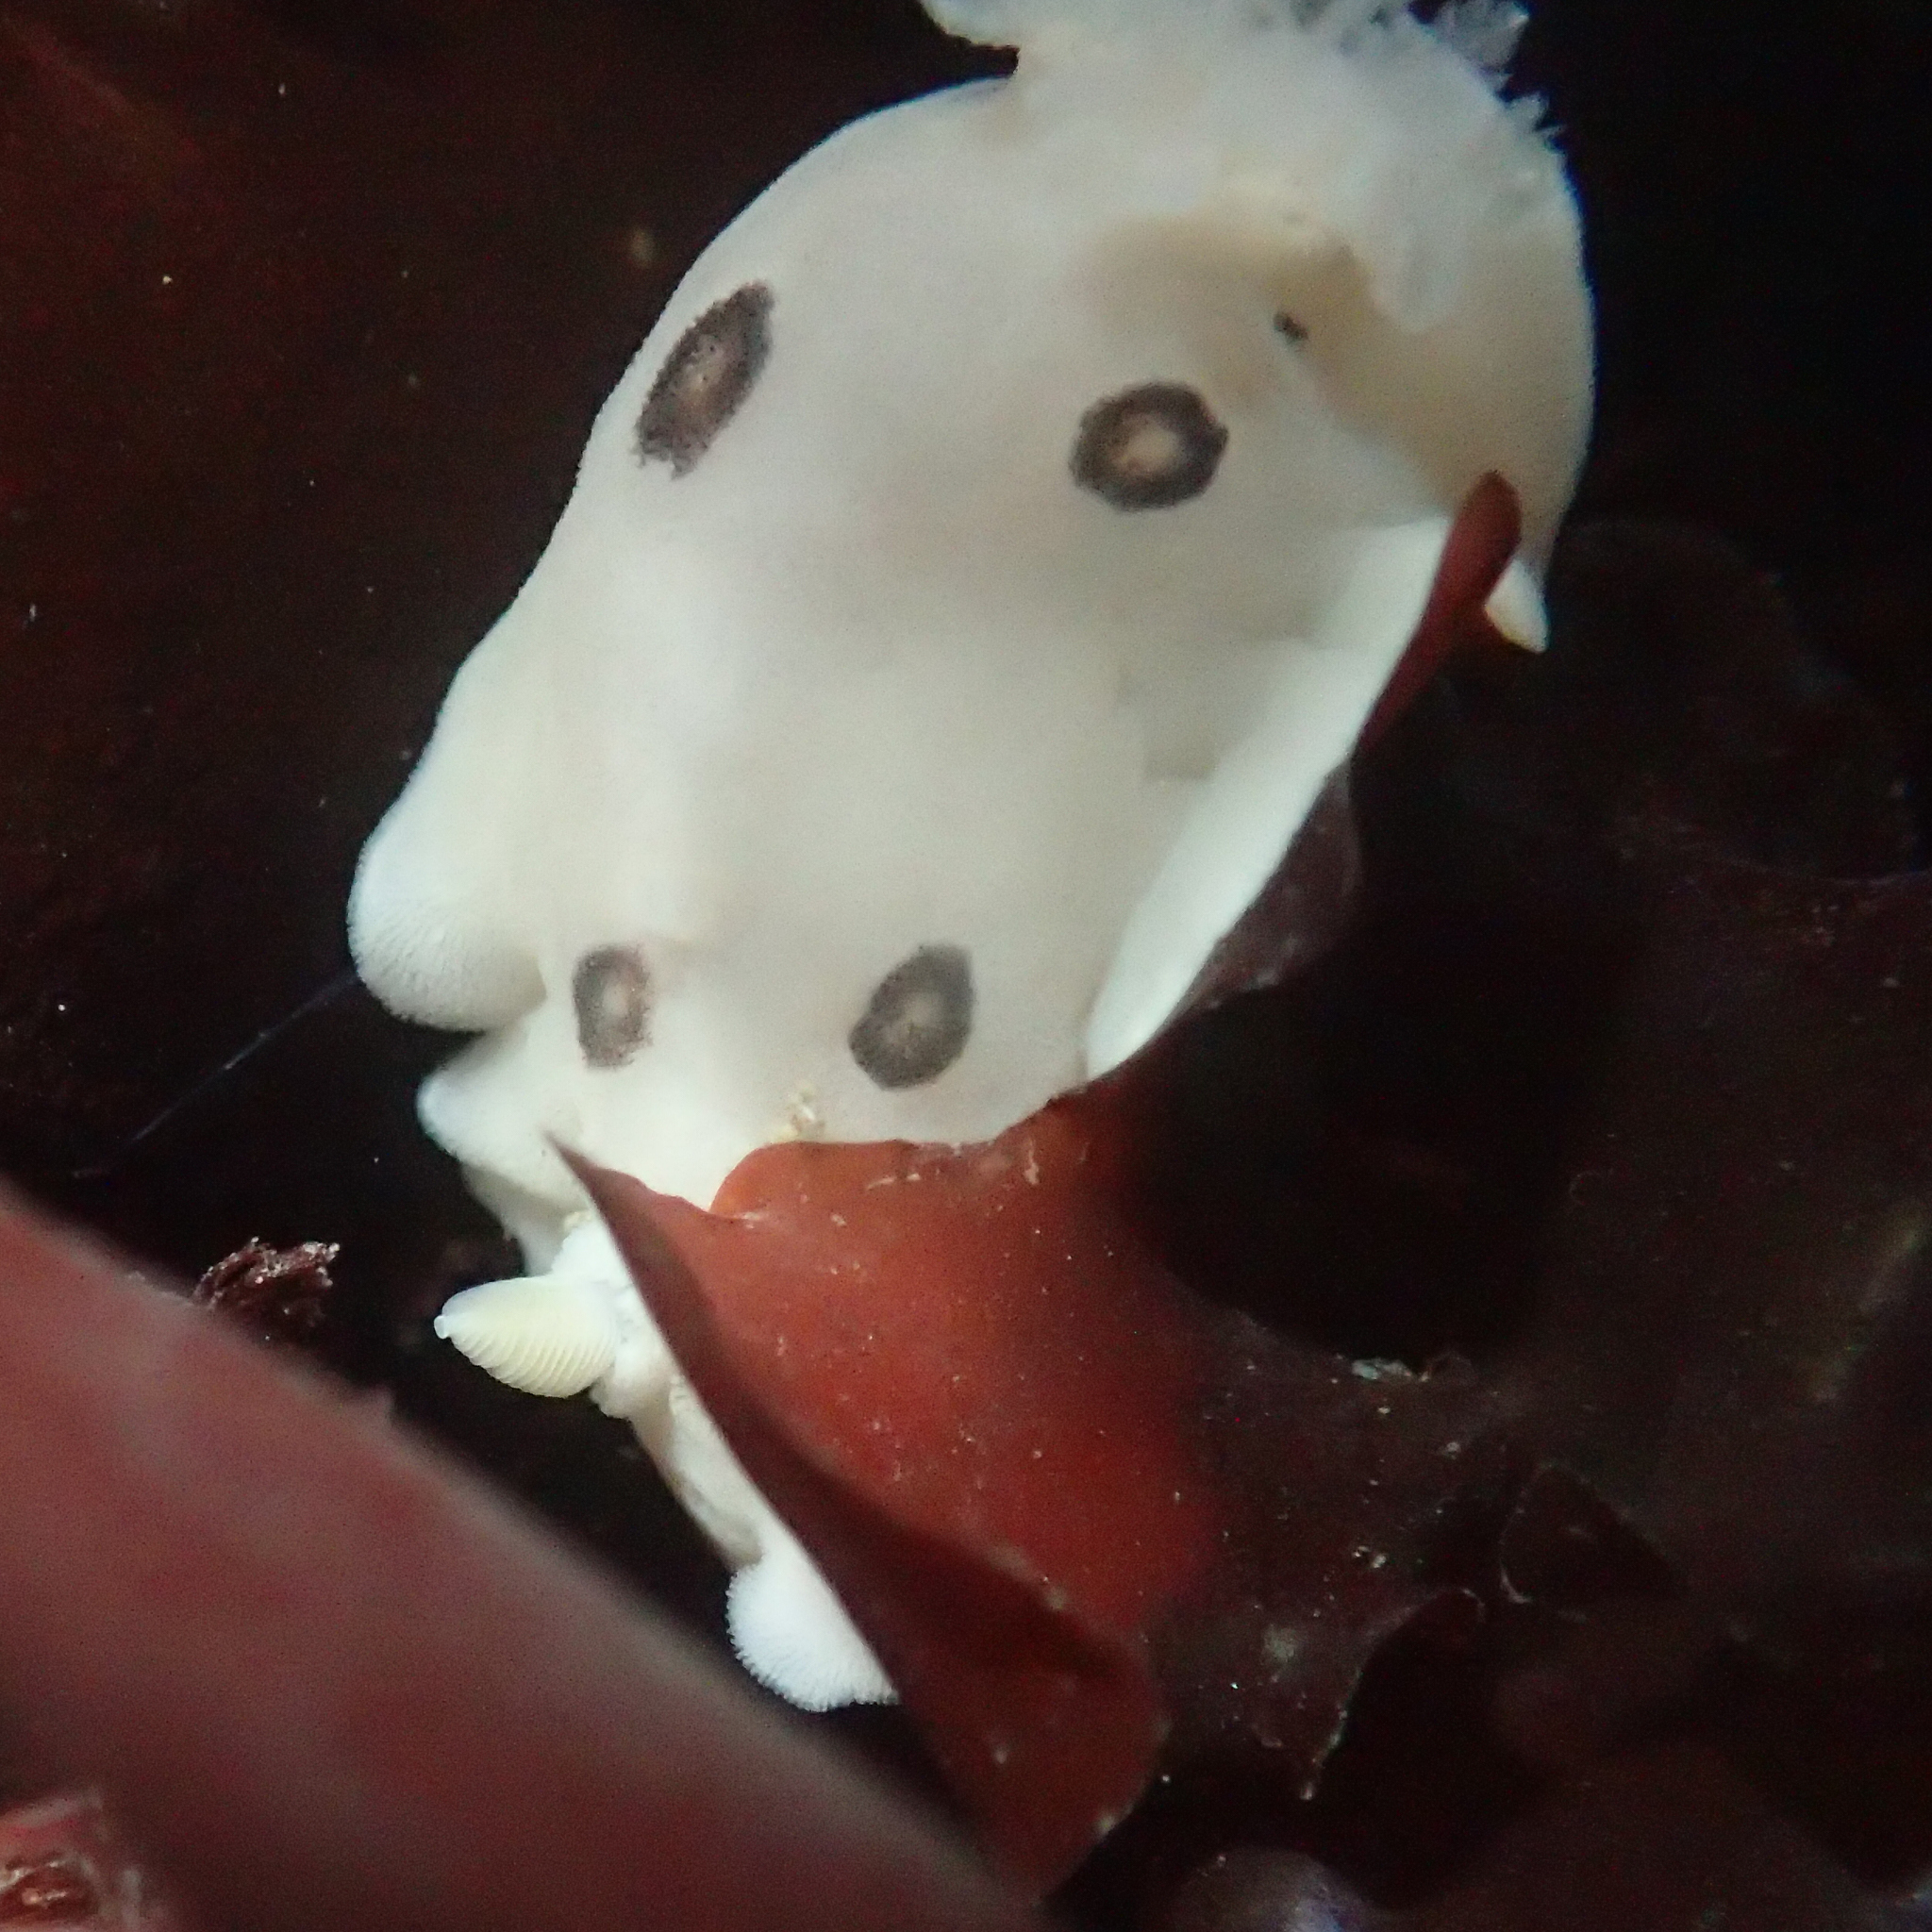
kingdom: Animalia
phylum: Mollusca
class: Gastropoda
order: Nudibranchia
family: Discodorididae
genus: Diaulula
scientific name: Diaulula sandiegensis
